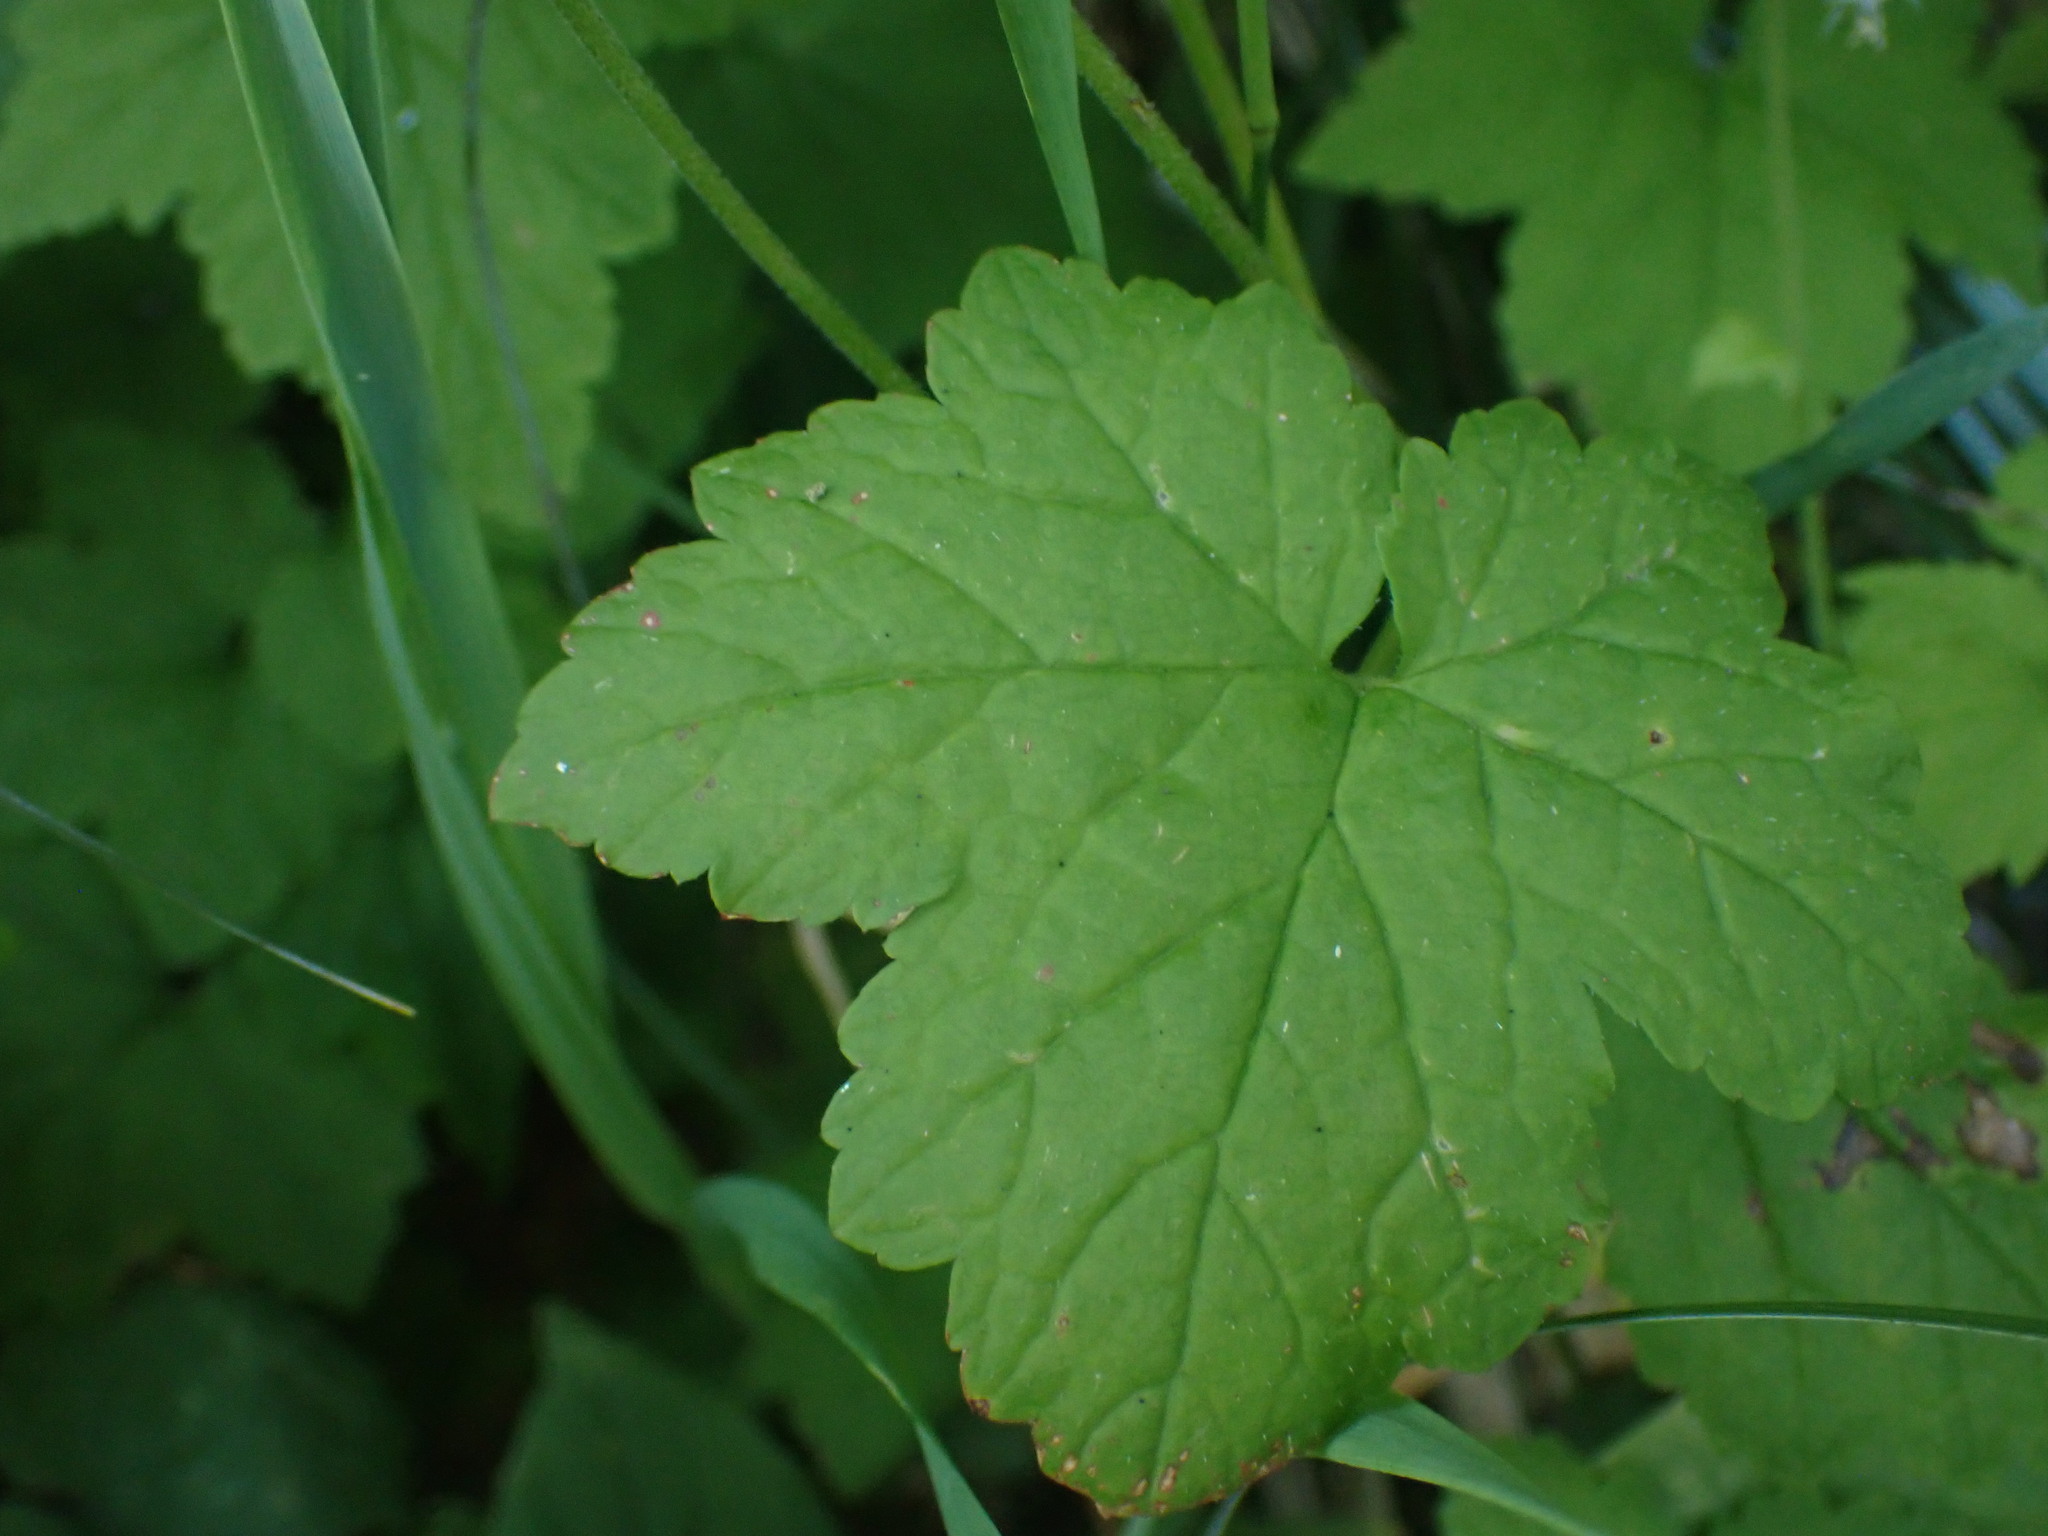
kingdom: Plantae
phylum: Tracheophyta
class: Magnoliopsida
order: Saxifragales
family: Saxifragaceae
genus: Tiarella
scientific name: Tiarella trifoliata
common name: Sugar-scoop
